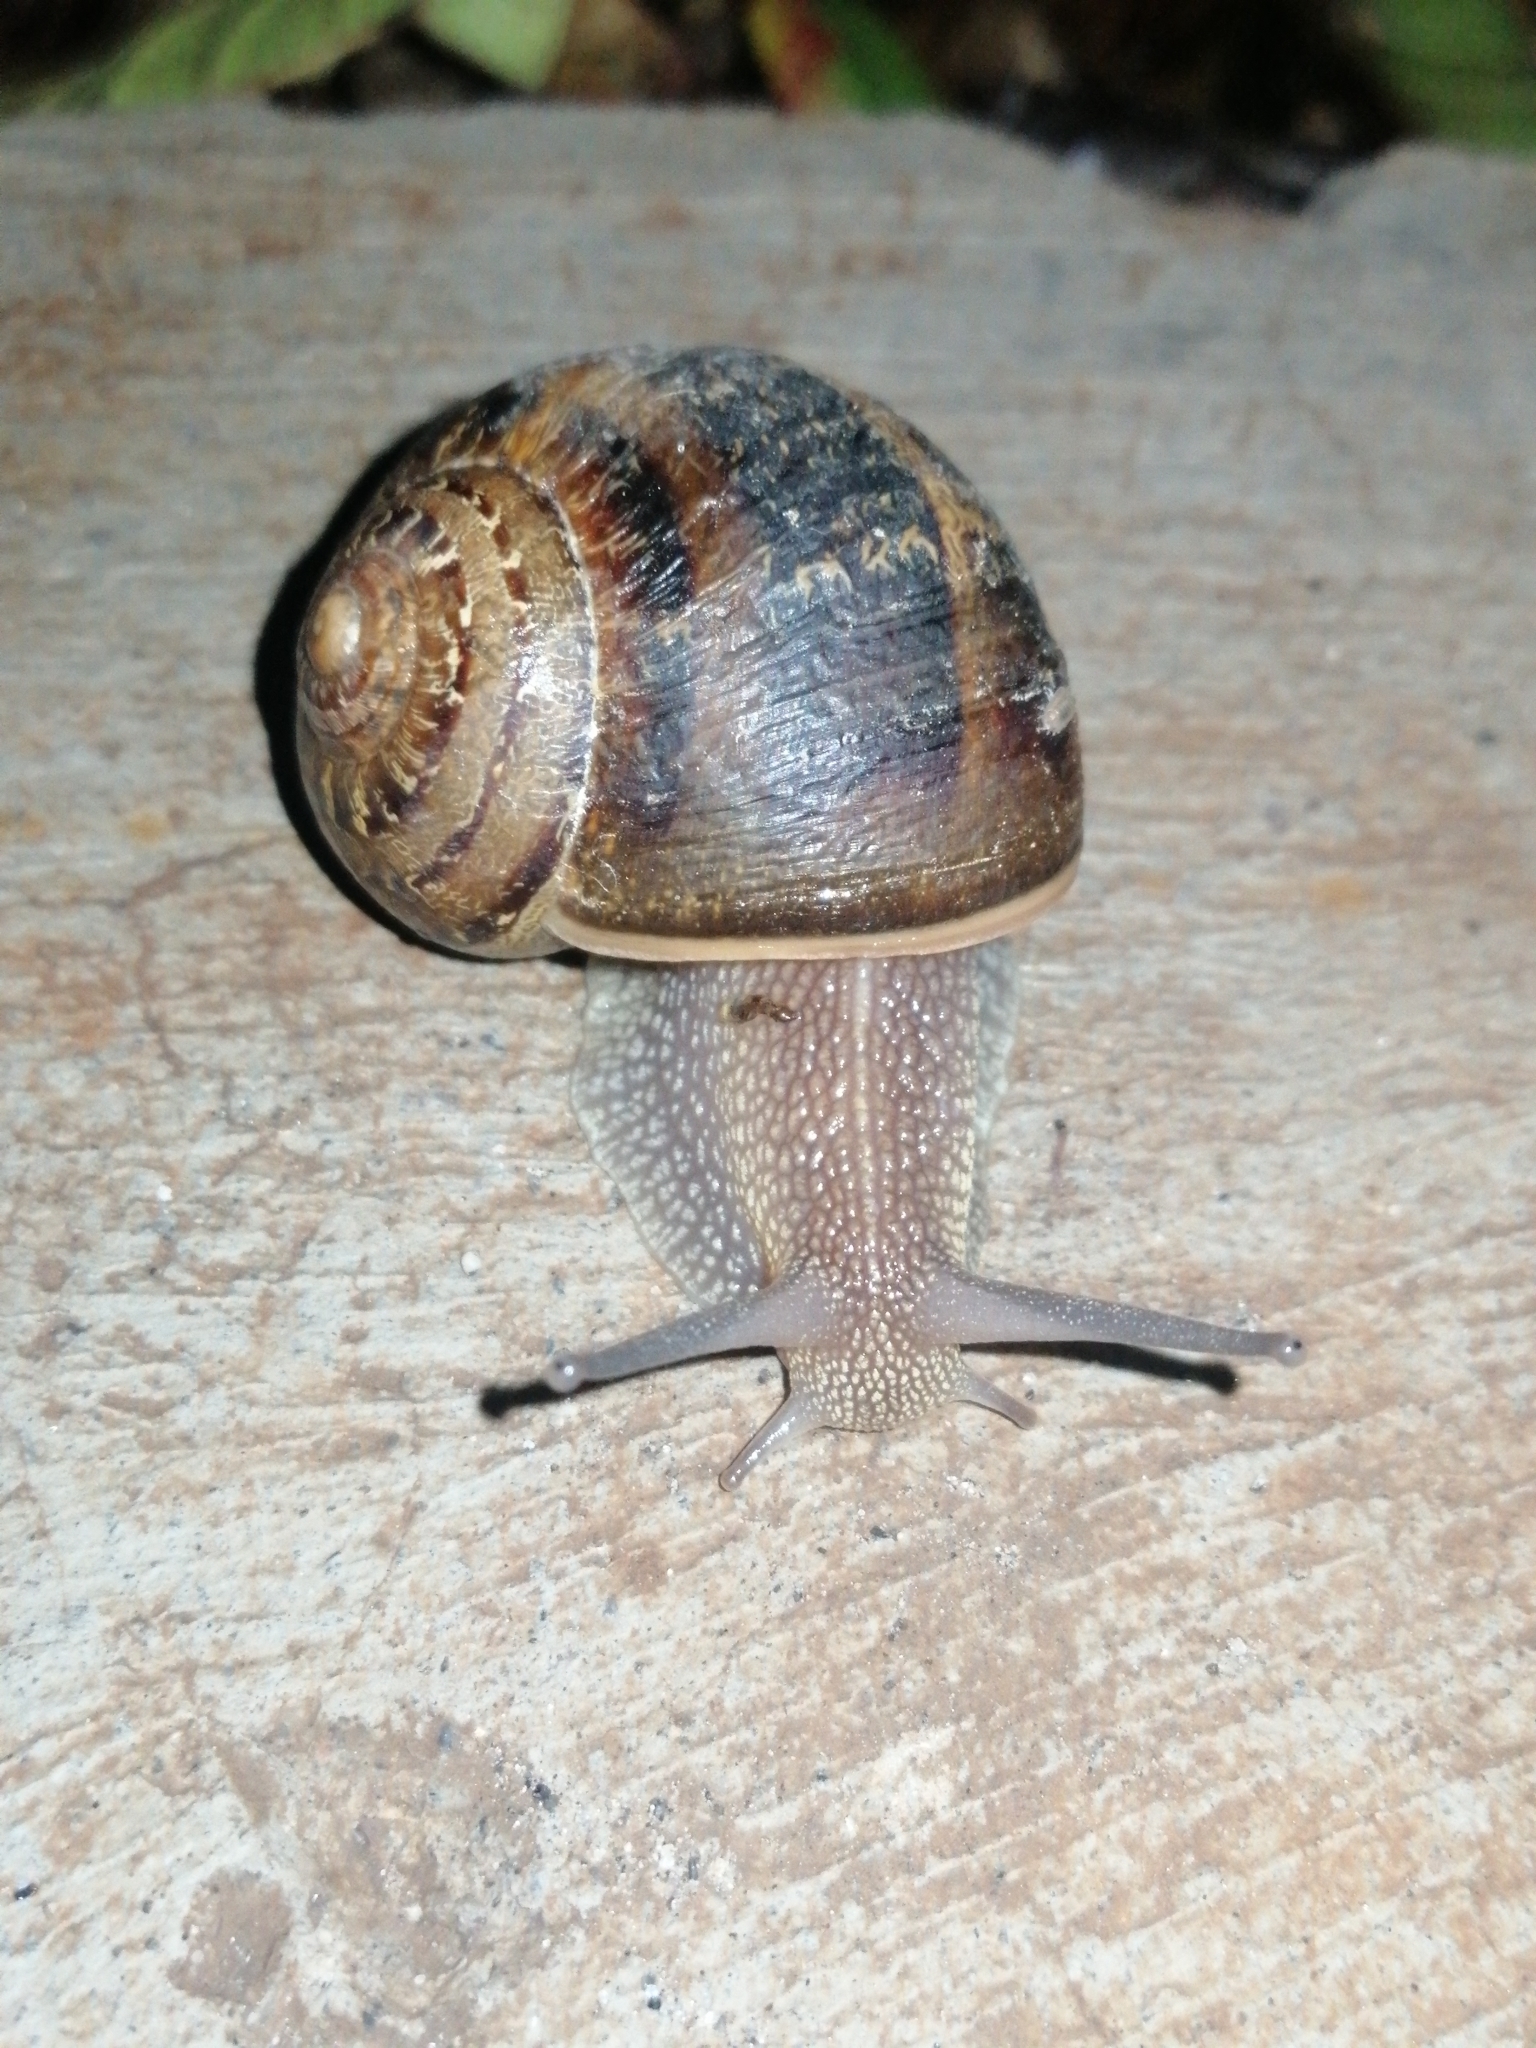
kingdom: Animalia
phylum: Mollusca
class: Gastropoda
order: Stylommatophora
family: Helicidae
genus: Cornu
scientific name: Cornu aspersum
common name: Brown garden snail
